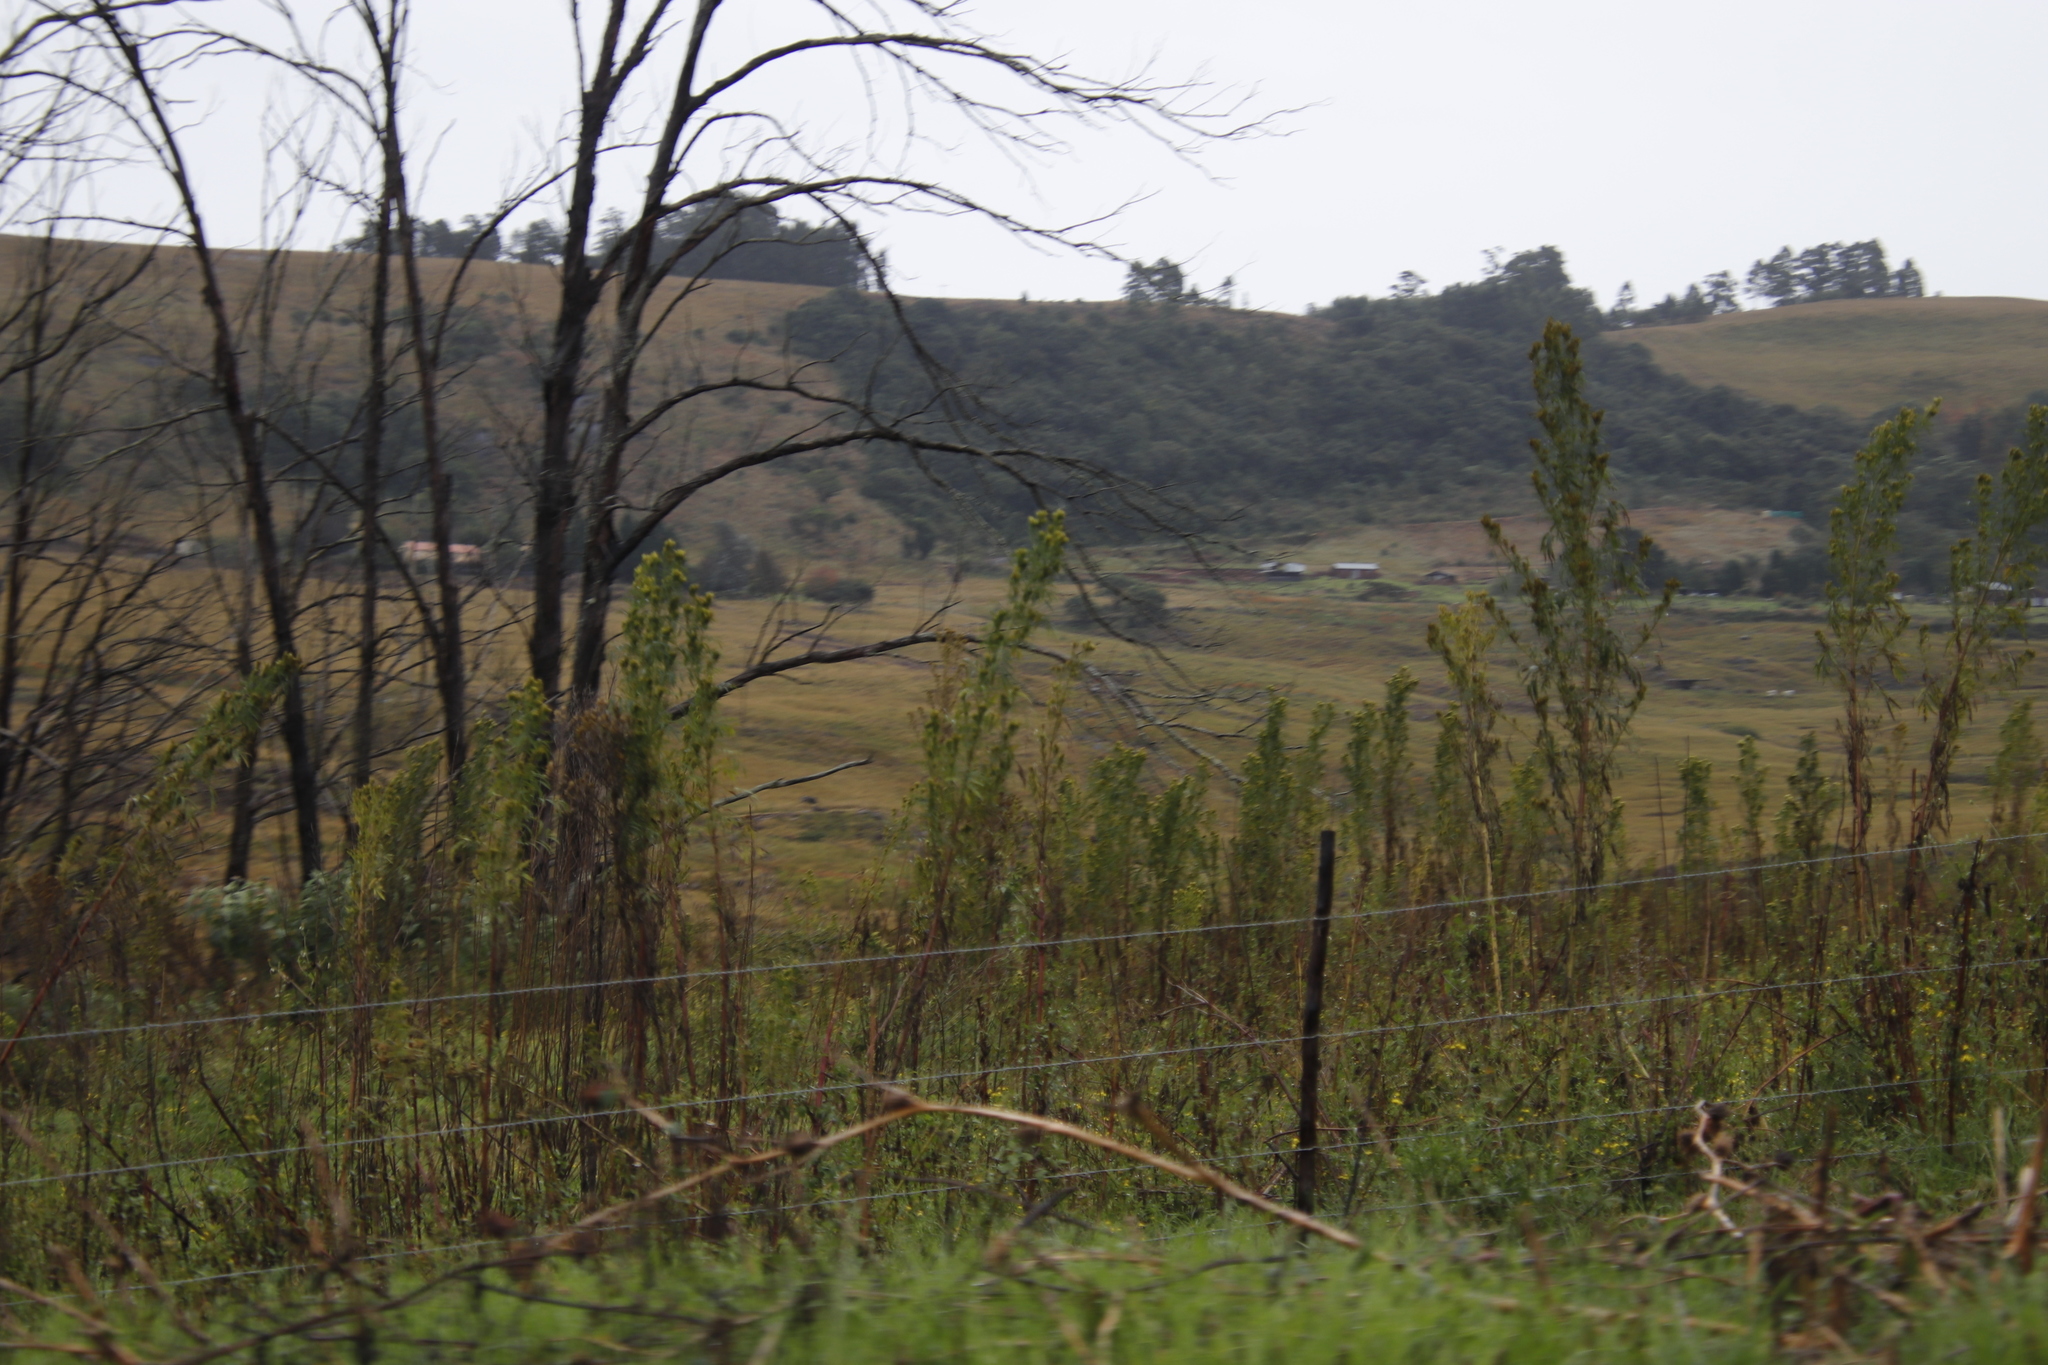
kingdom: Plantae
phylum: Tracheophyta
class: Magnoliopsida
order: Asterales
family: Asteraceae
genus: Tagetes
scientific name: Tagetes minuta
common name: Muster john henry
